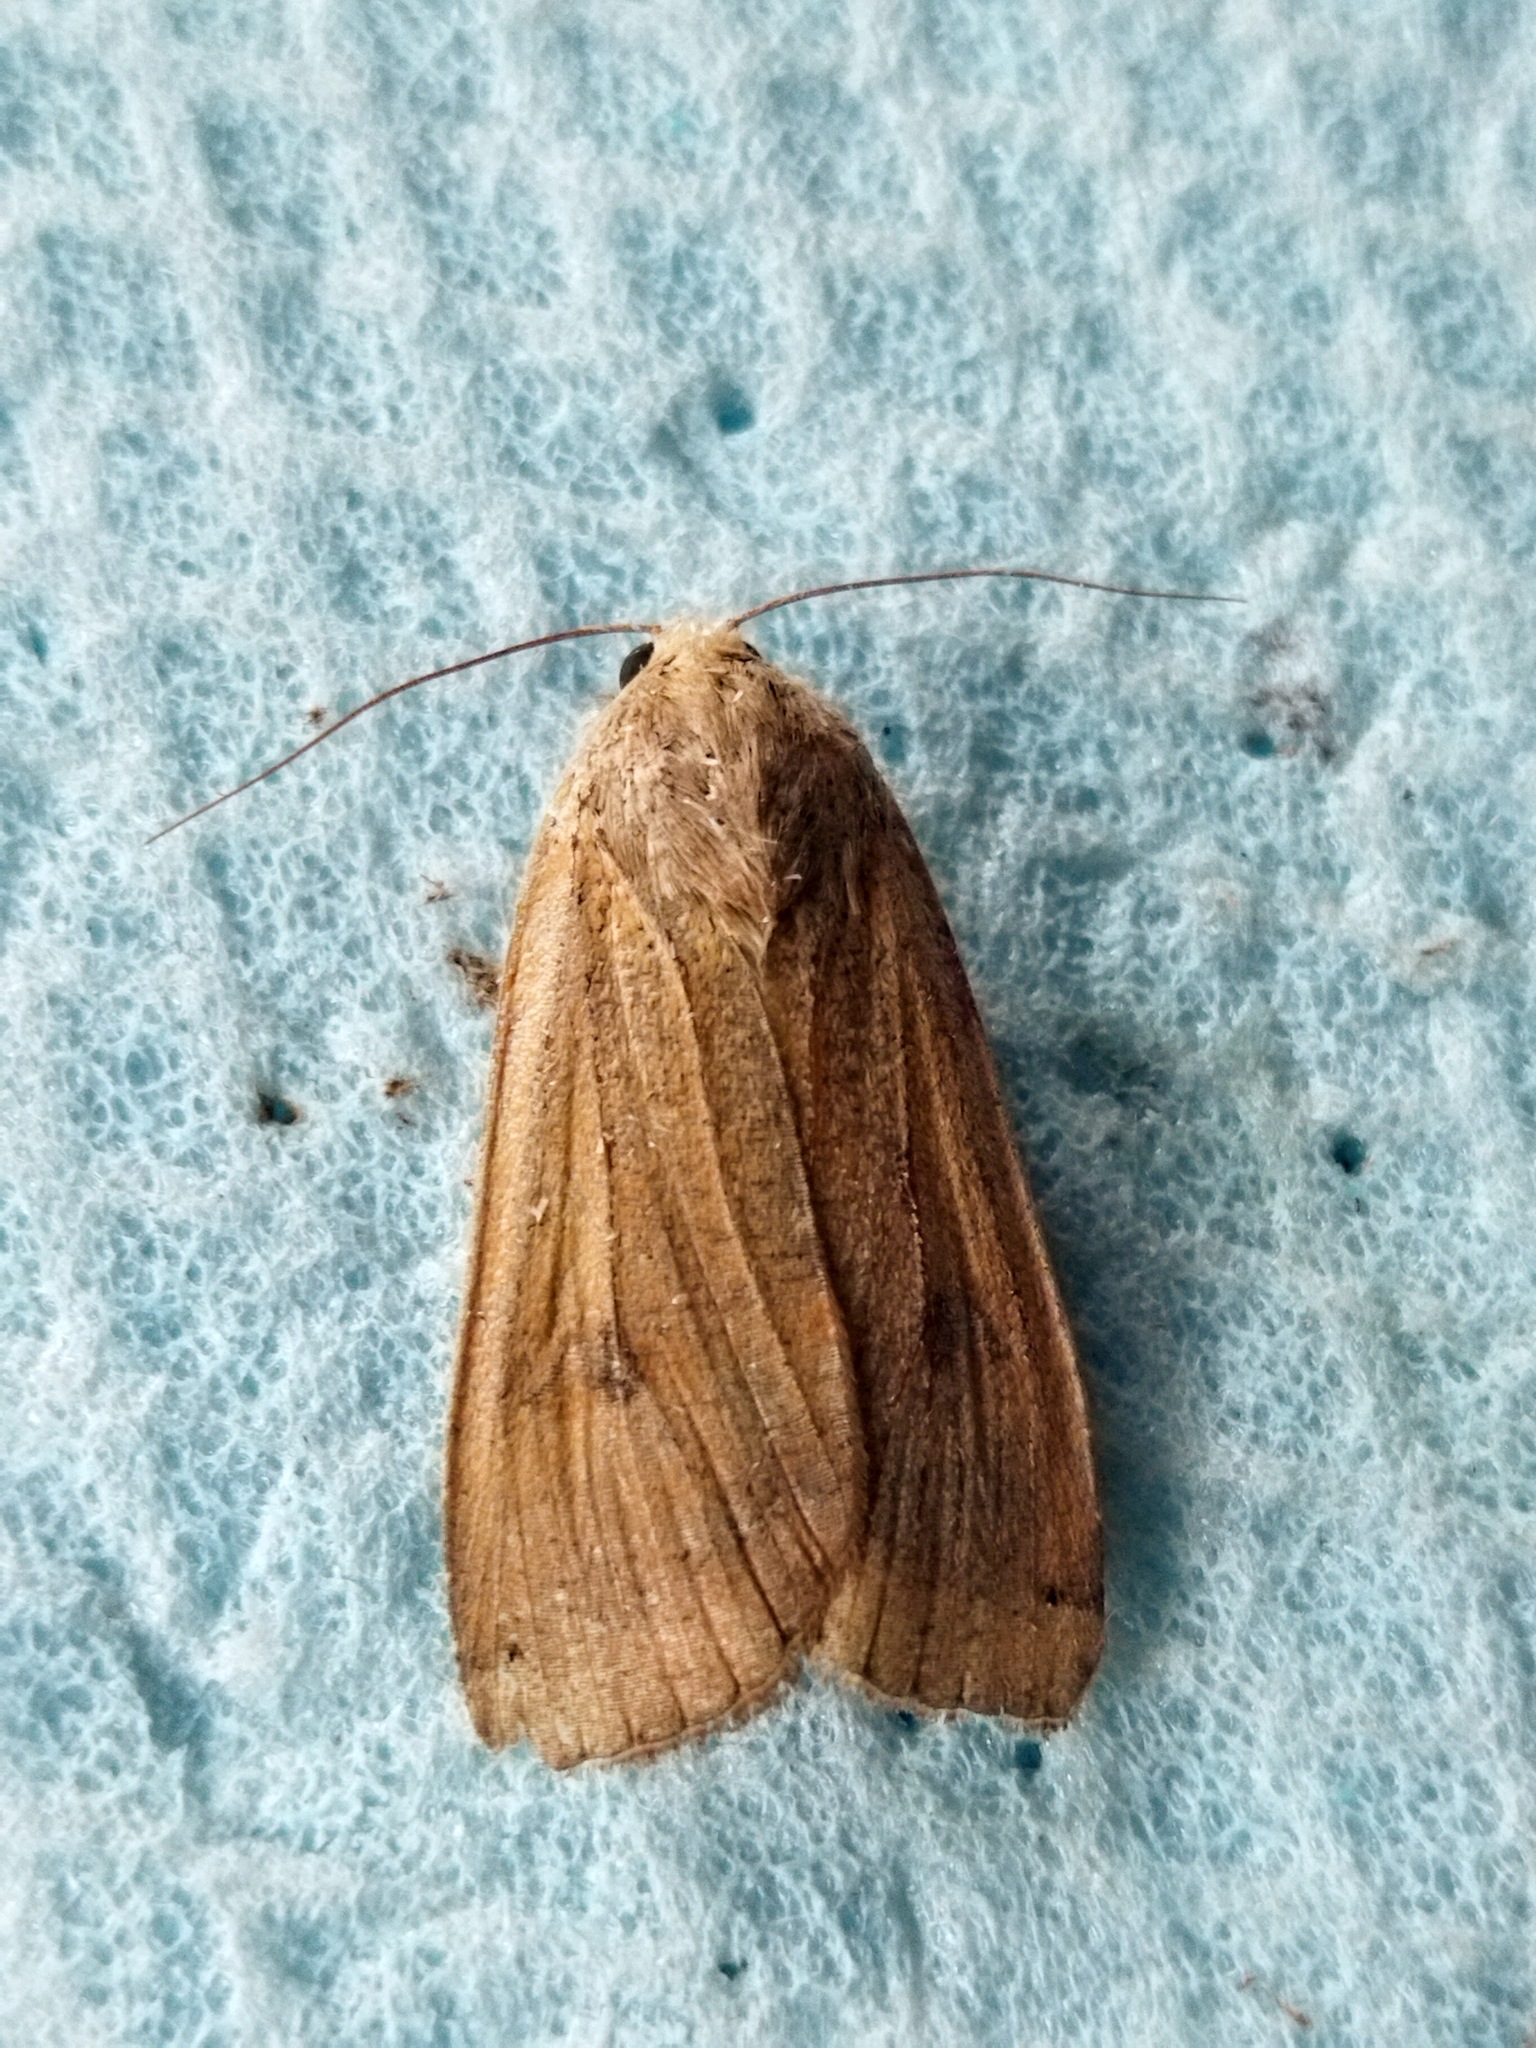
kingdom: Animalia
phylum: Arthropoda
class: Insecta
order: Lepidoptera
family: Noctuidae
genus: Noctua
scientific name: Noctua pronuba
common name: Large yellow underwing
